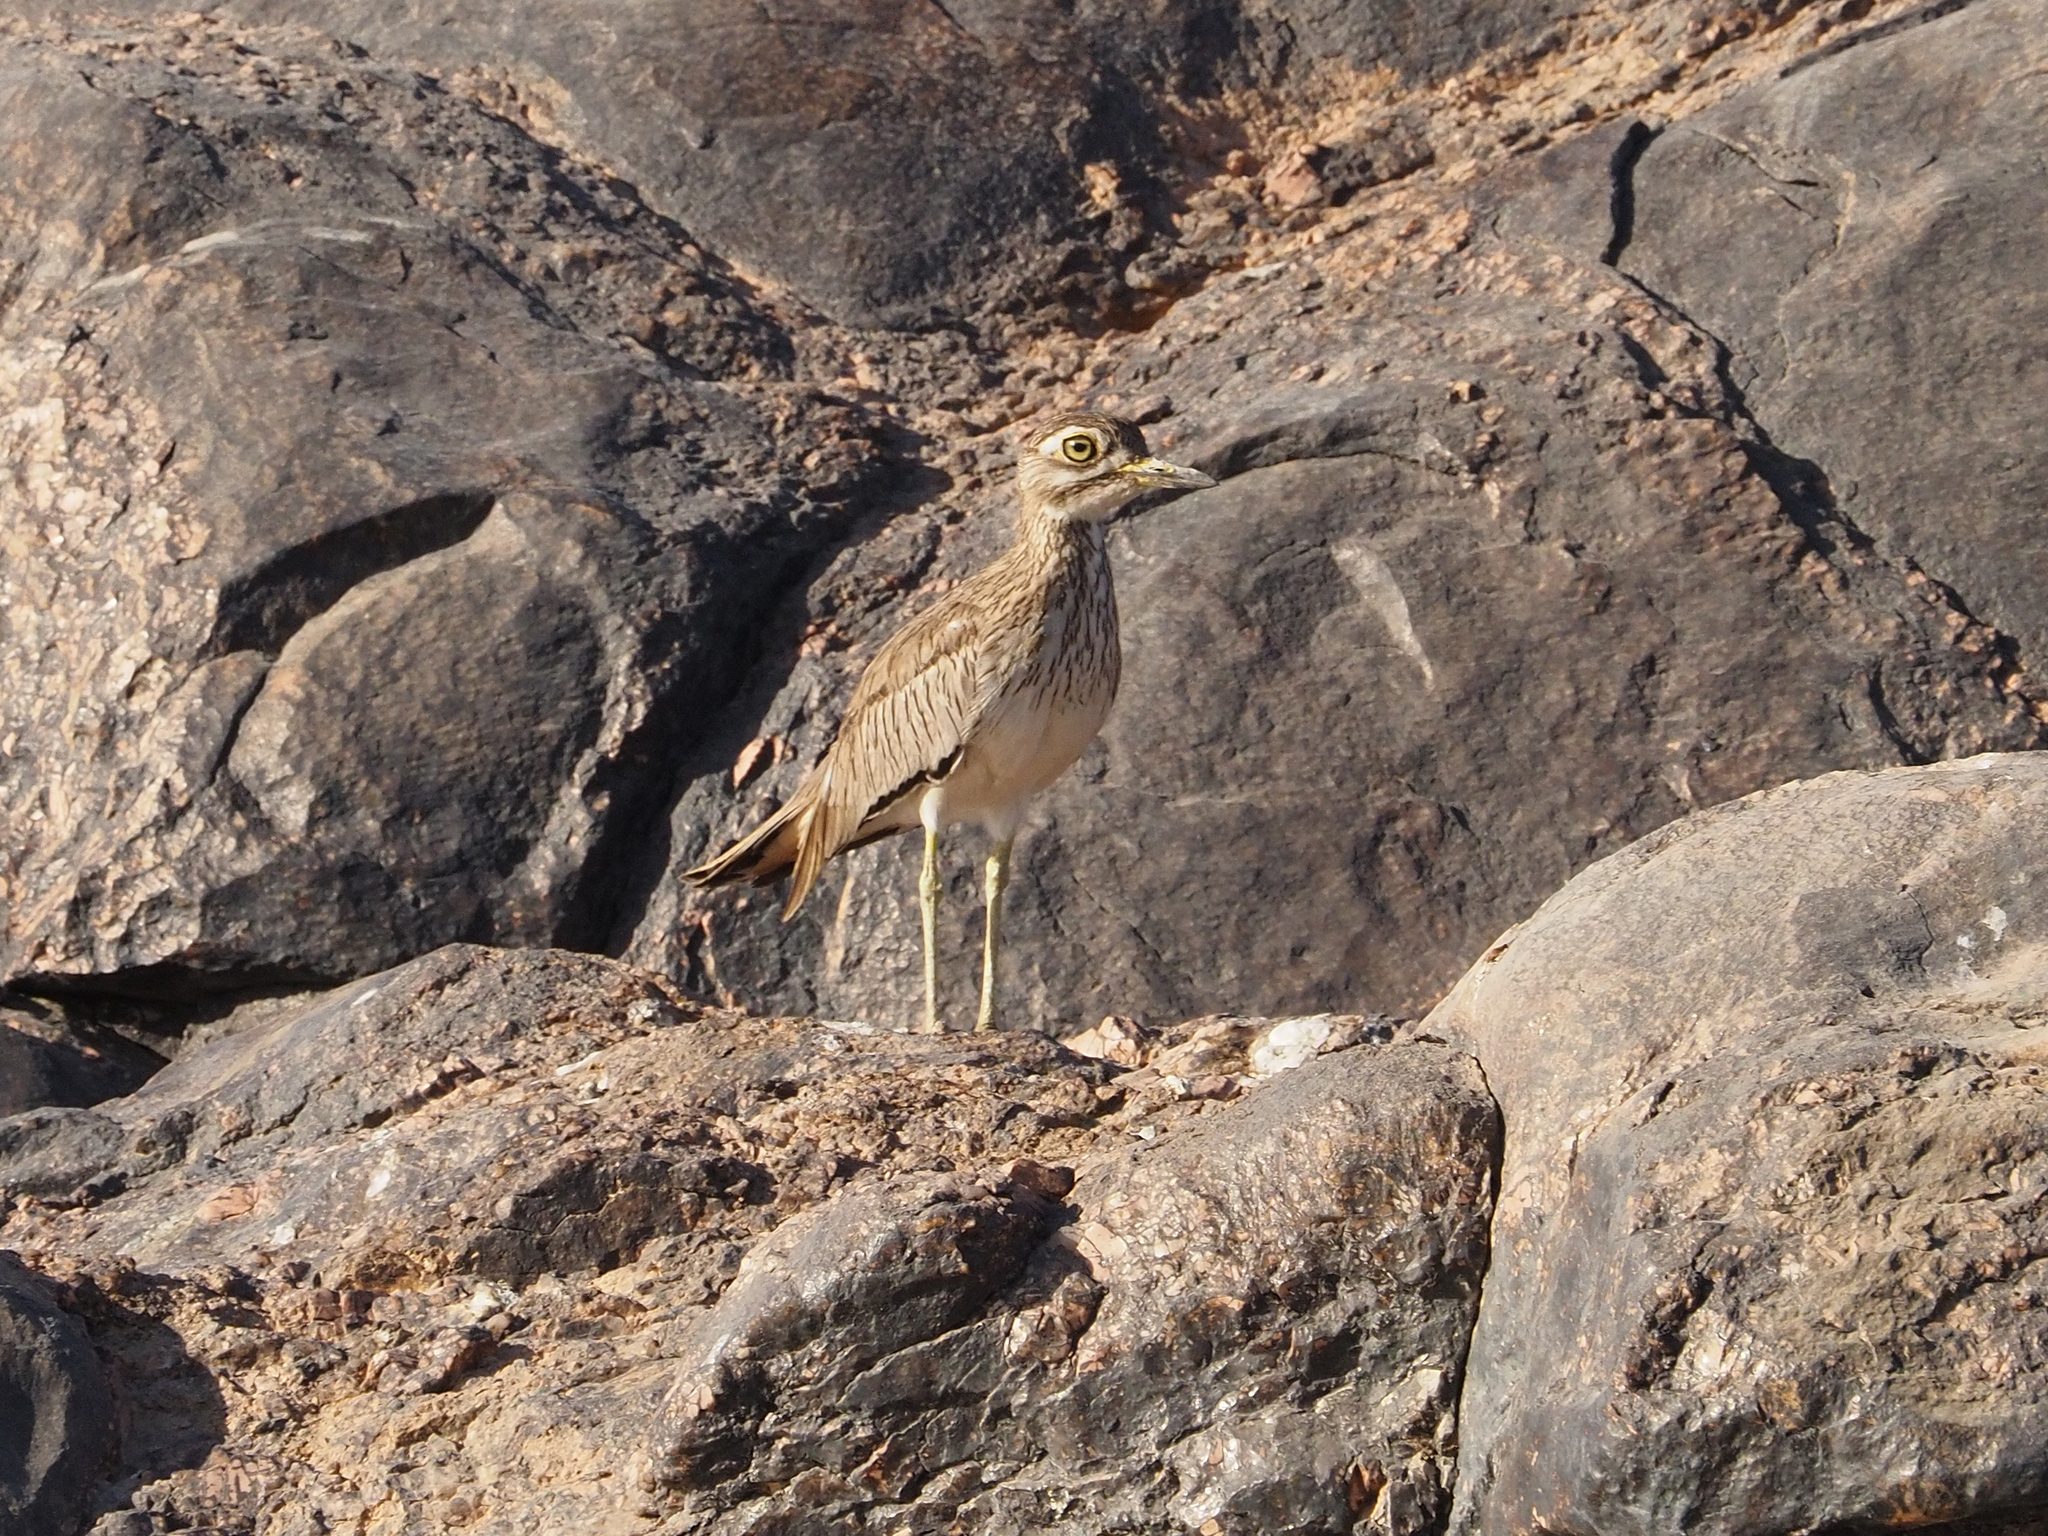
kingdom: Animalia
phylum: Chordata
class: Aves
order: Charadriiformes
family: Burhinidae
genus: Burhinus
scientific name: Burhinus senegalensis
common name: Senegal thick-knee
